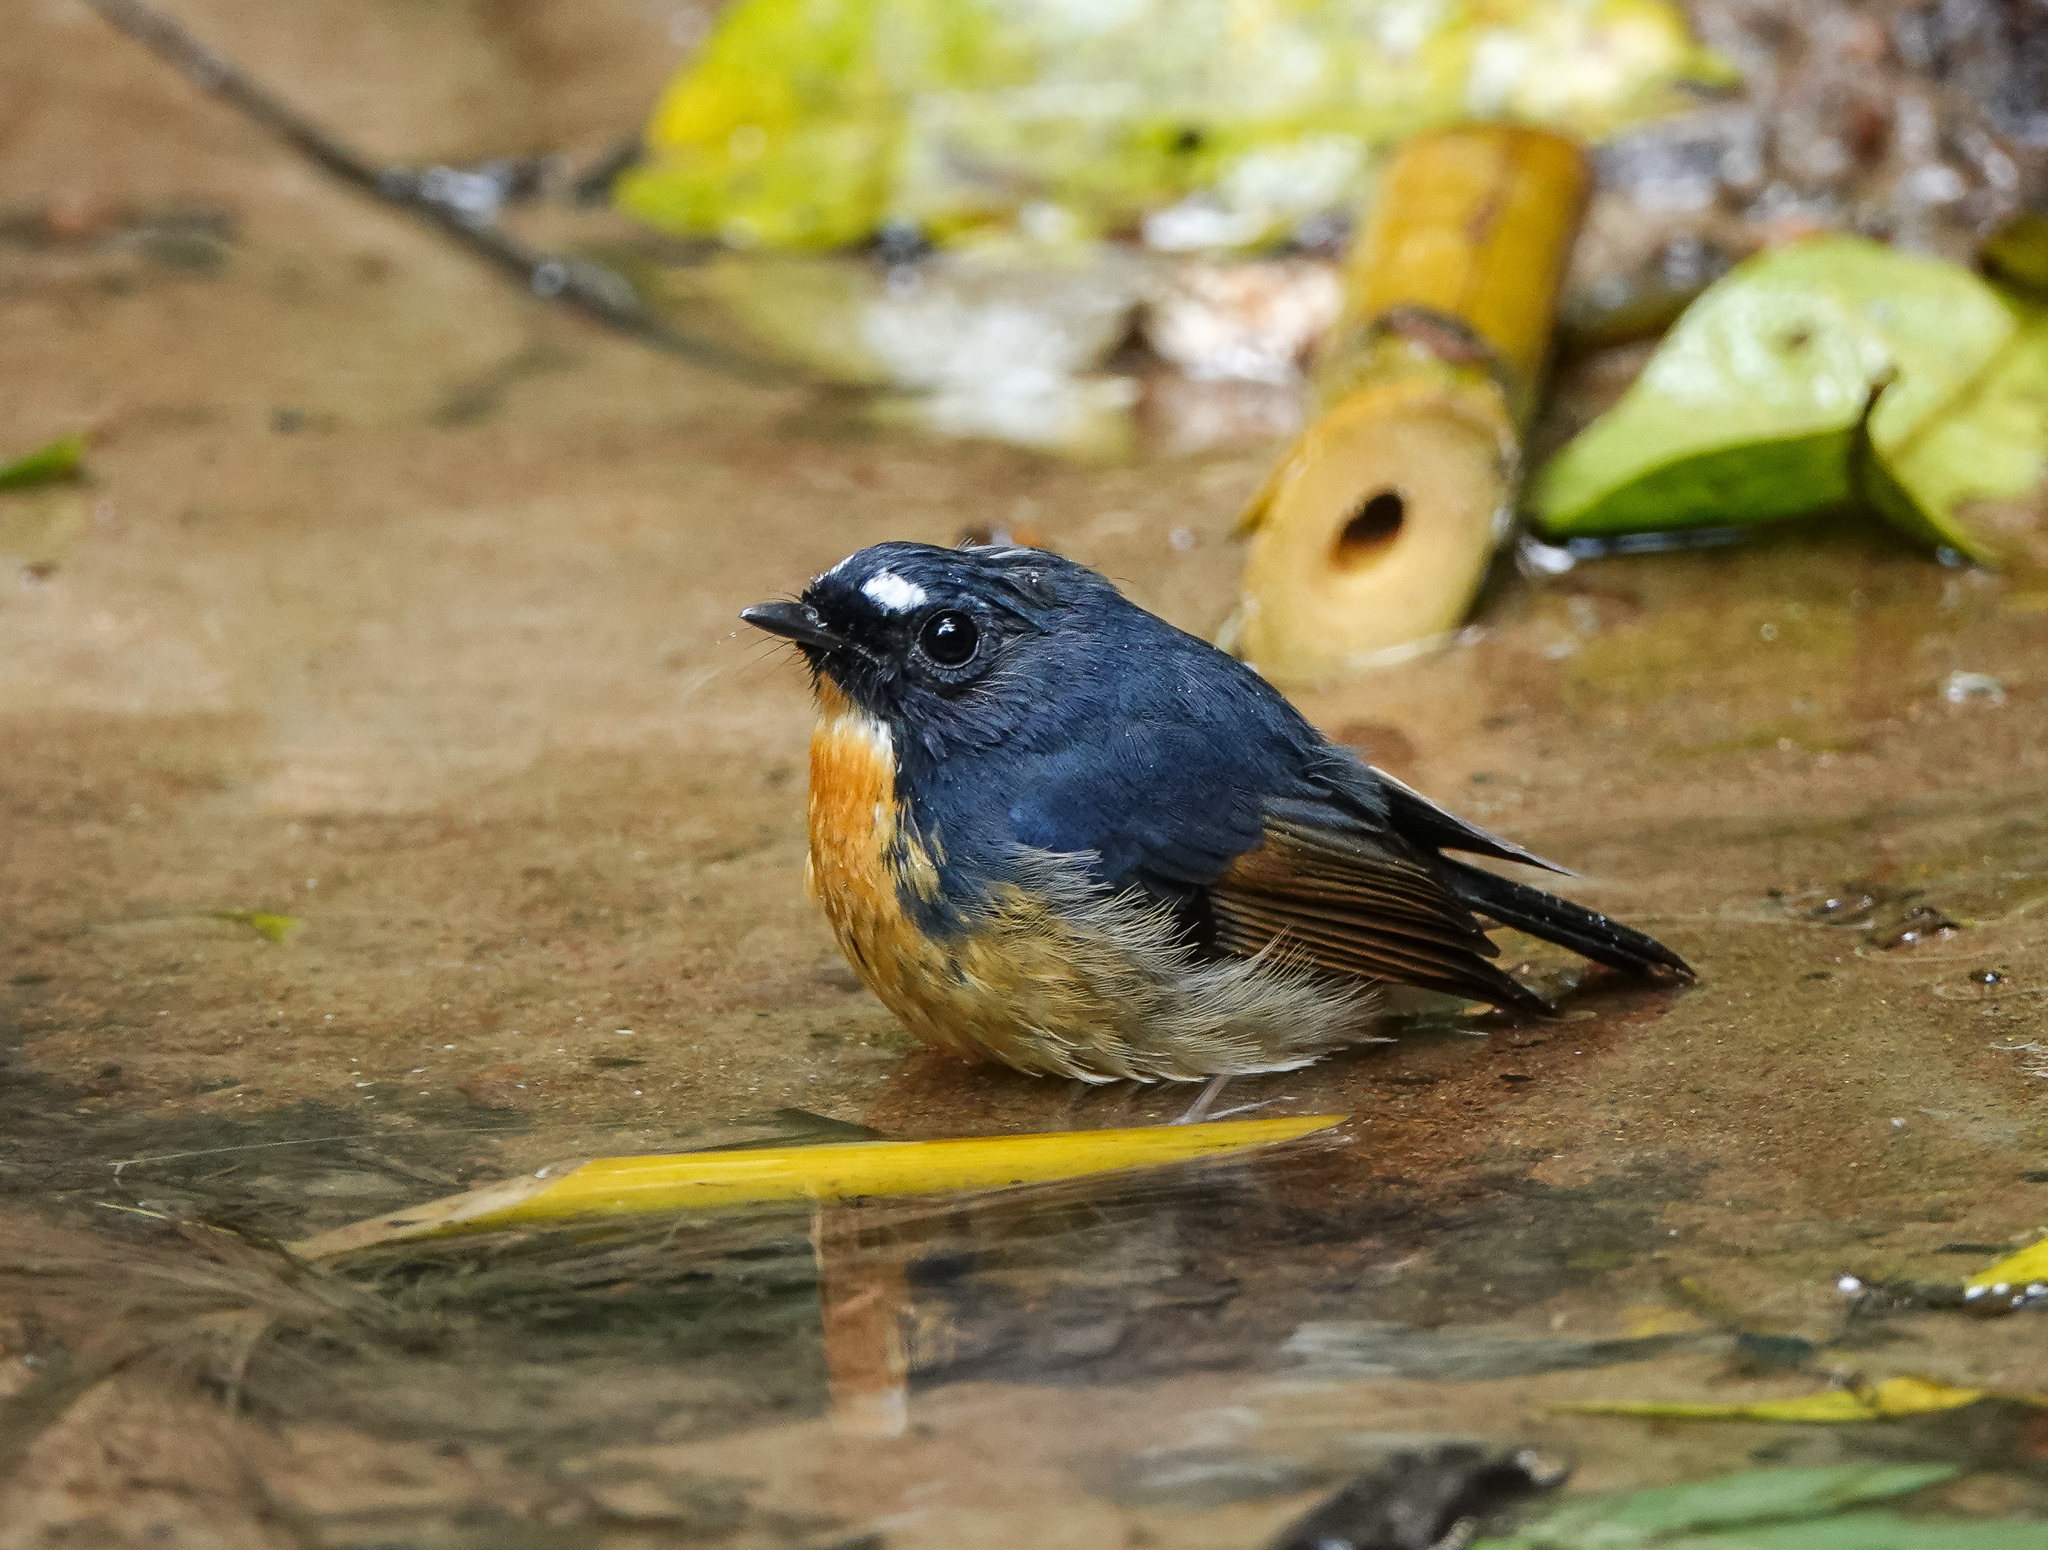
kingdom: Animalia
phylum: Chordata
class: Aves
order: Passeriformes
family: Muscicapidae
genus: Ficedula
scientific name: Ficedula hyperythra
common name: Snowy-browed flycatcher
